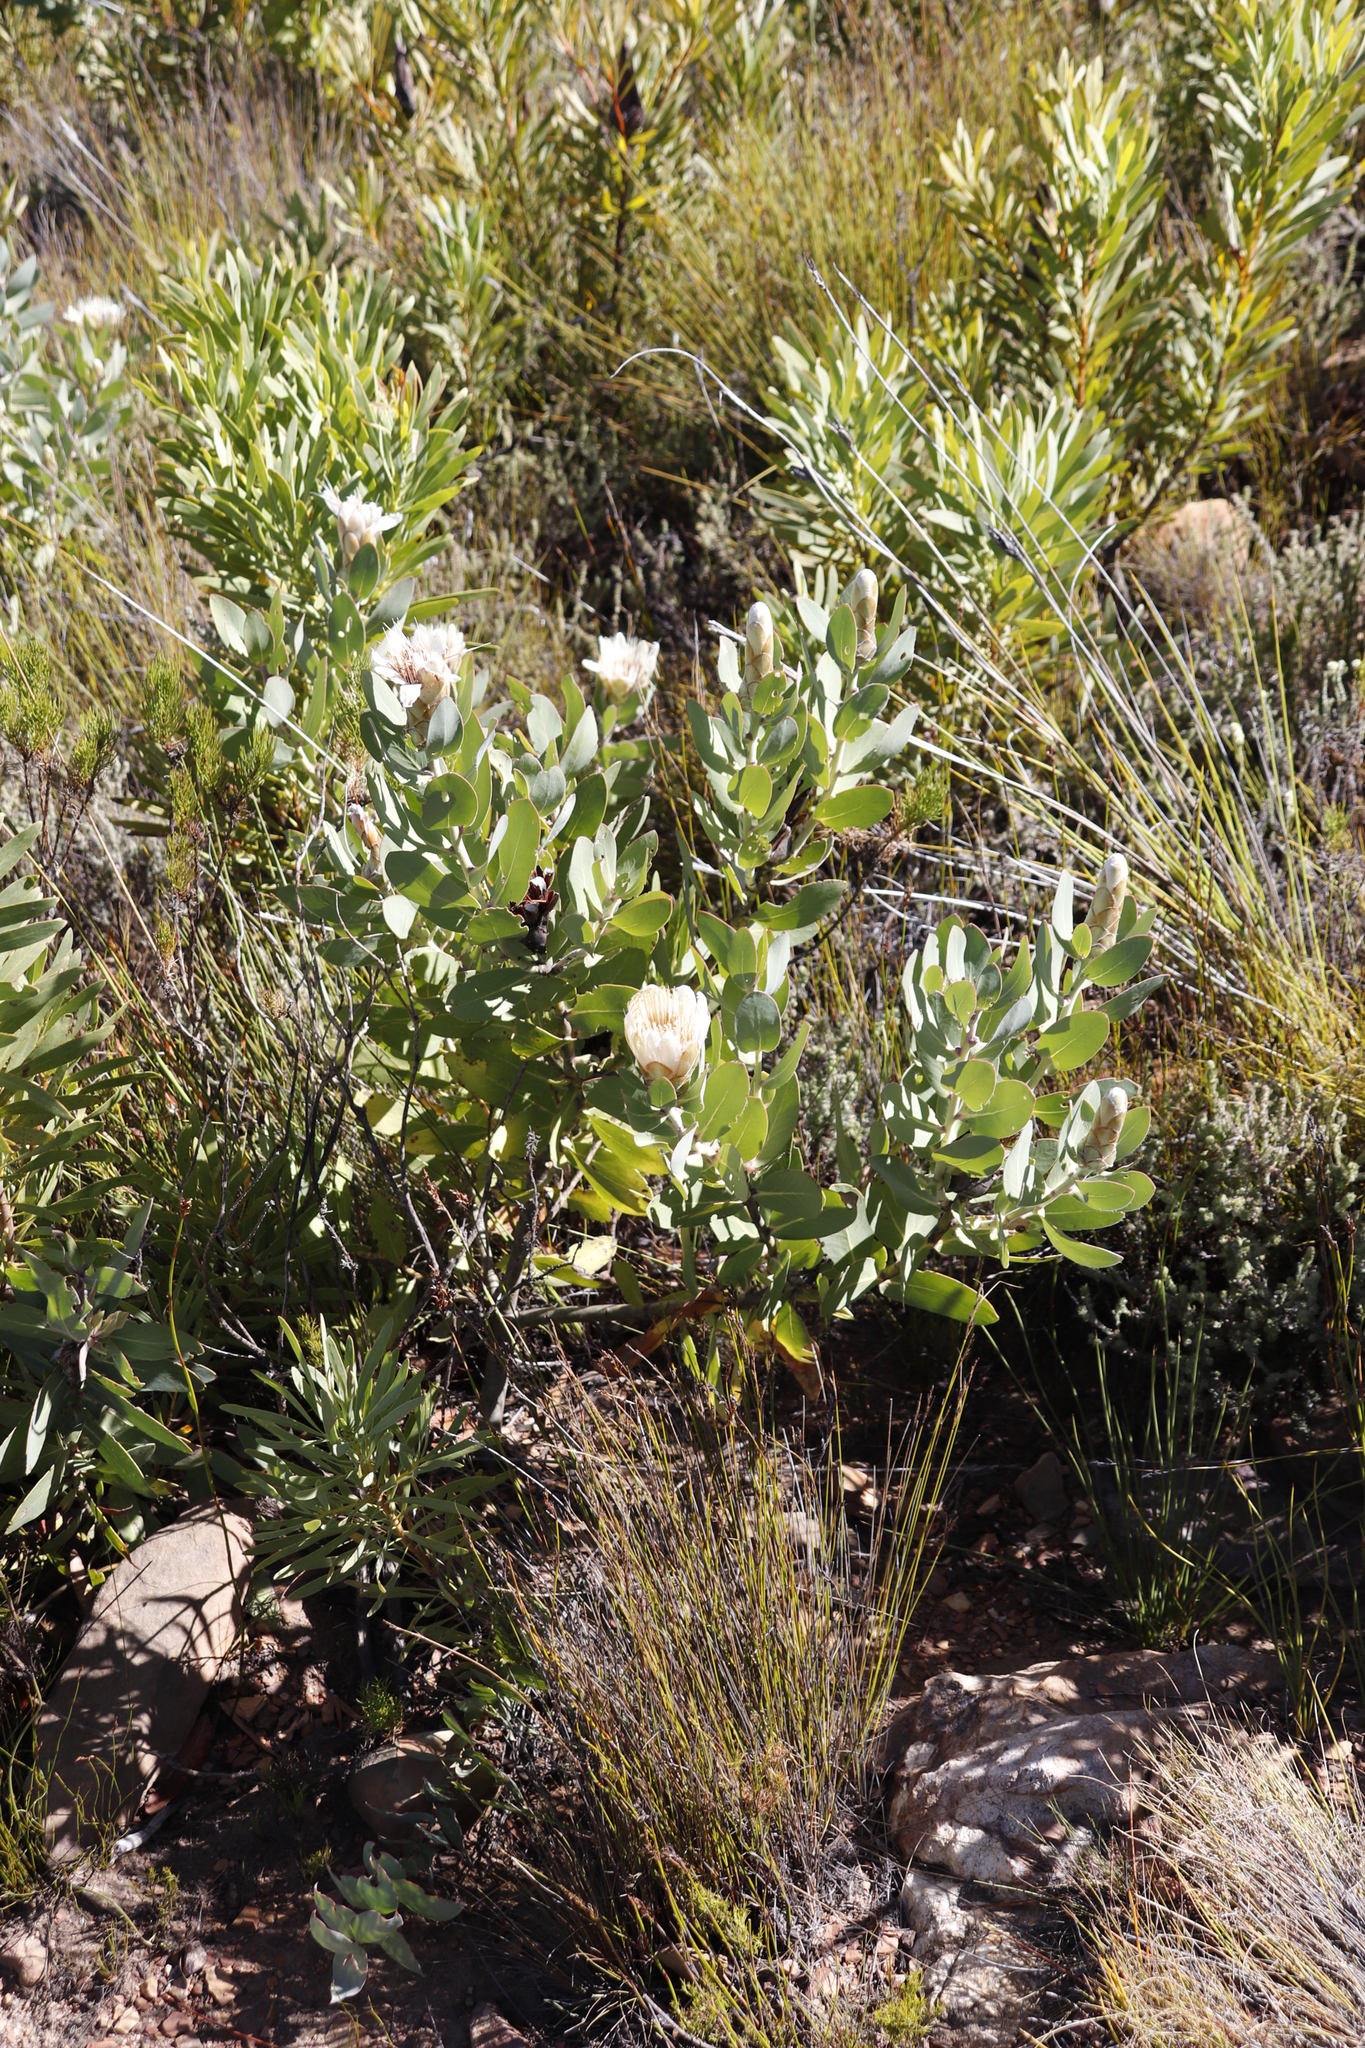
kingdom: Plantae
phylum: Tracheophyta
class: Magnoliopsida
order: Proteales
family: Proteaceae
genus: Protea
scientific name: Protea lacticolor
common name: Hottentot sugarbush
